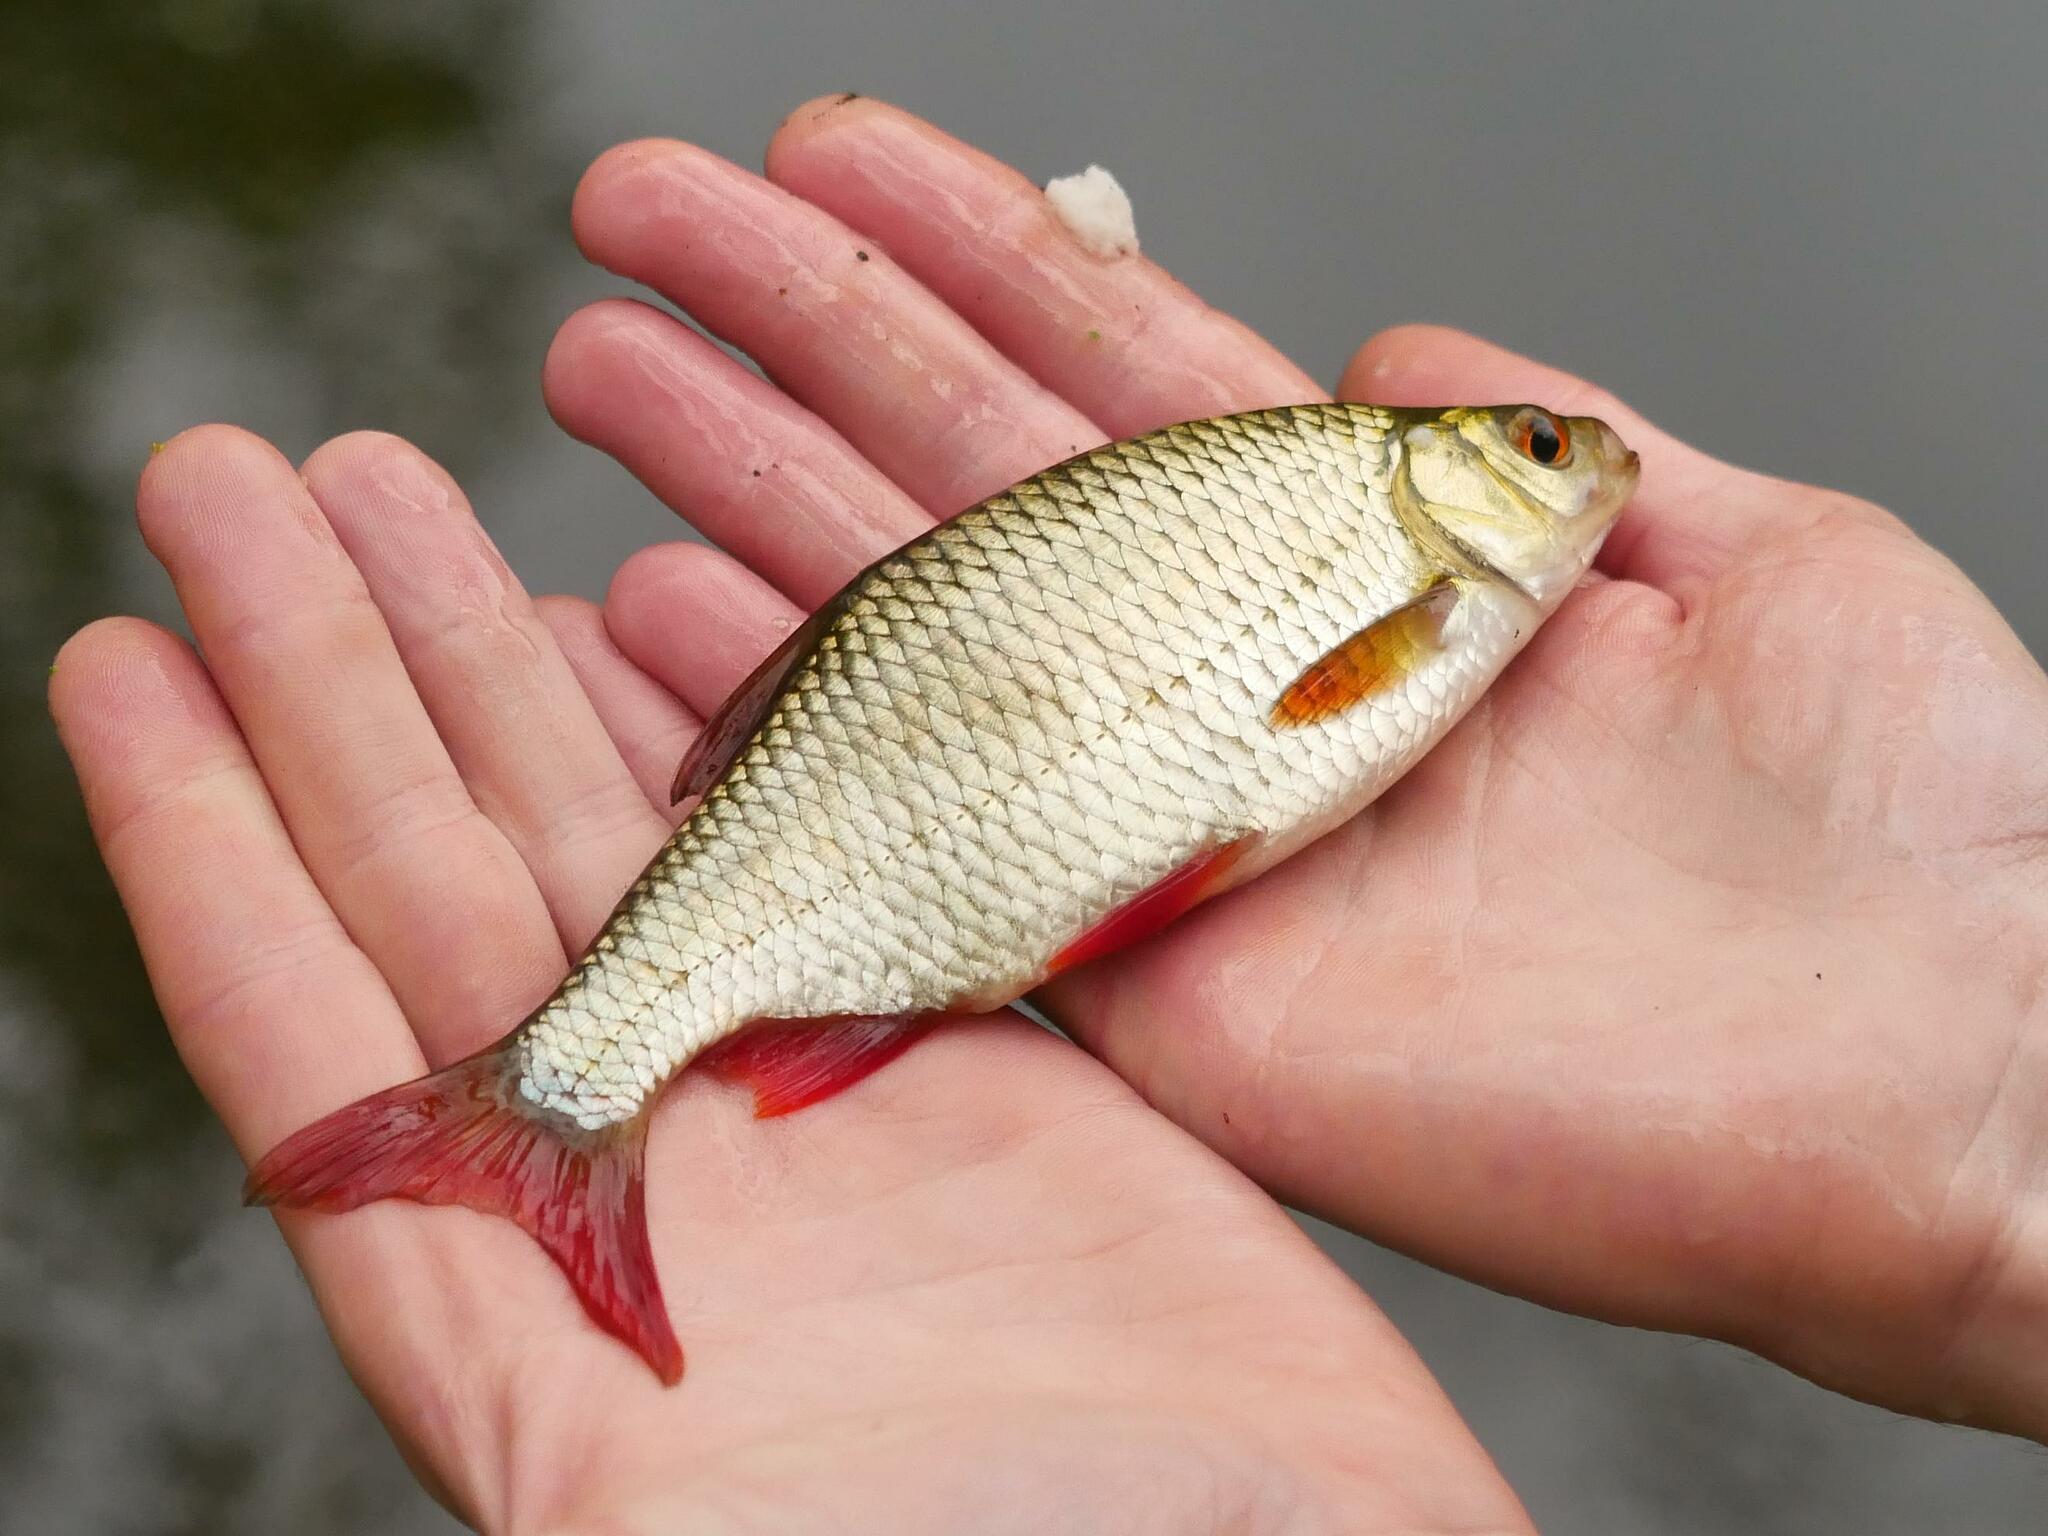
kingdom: Animalia
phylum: Chordata
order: Cypriniformes
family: Cyprinidae
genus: Scardinius
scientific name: Scardinius erythrophthalmus
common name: Rudd
